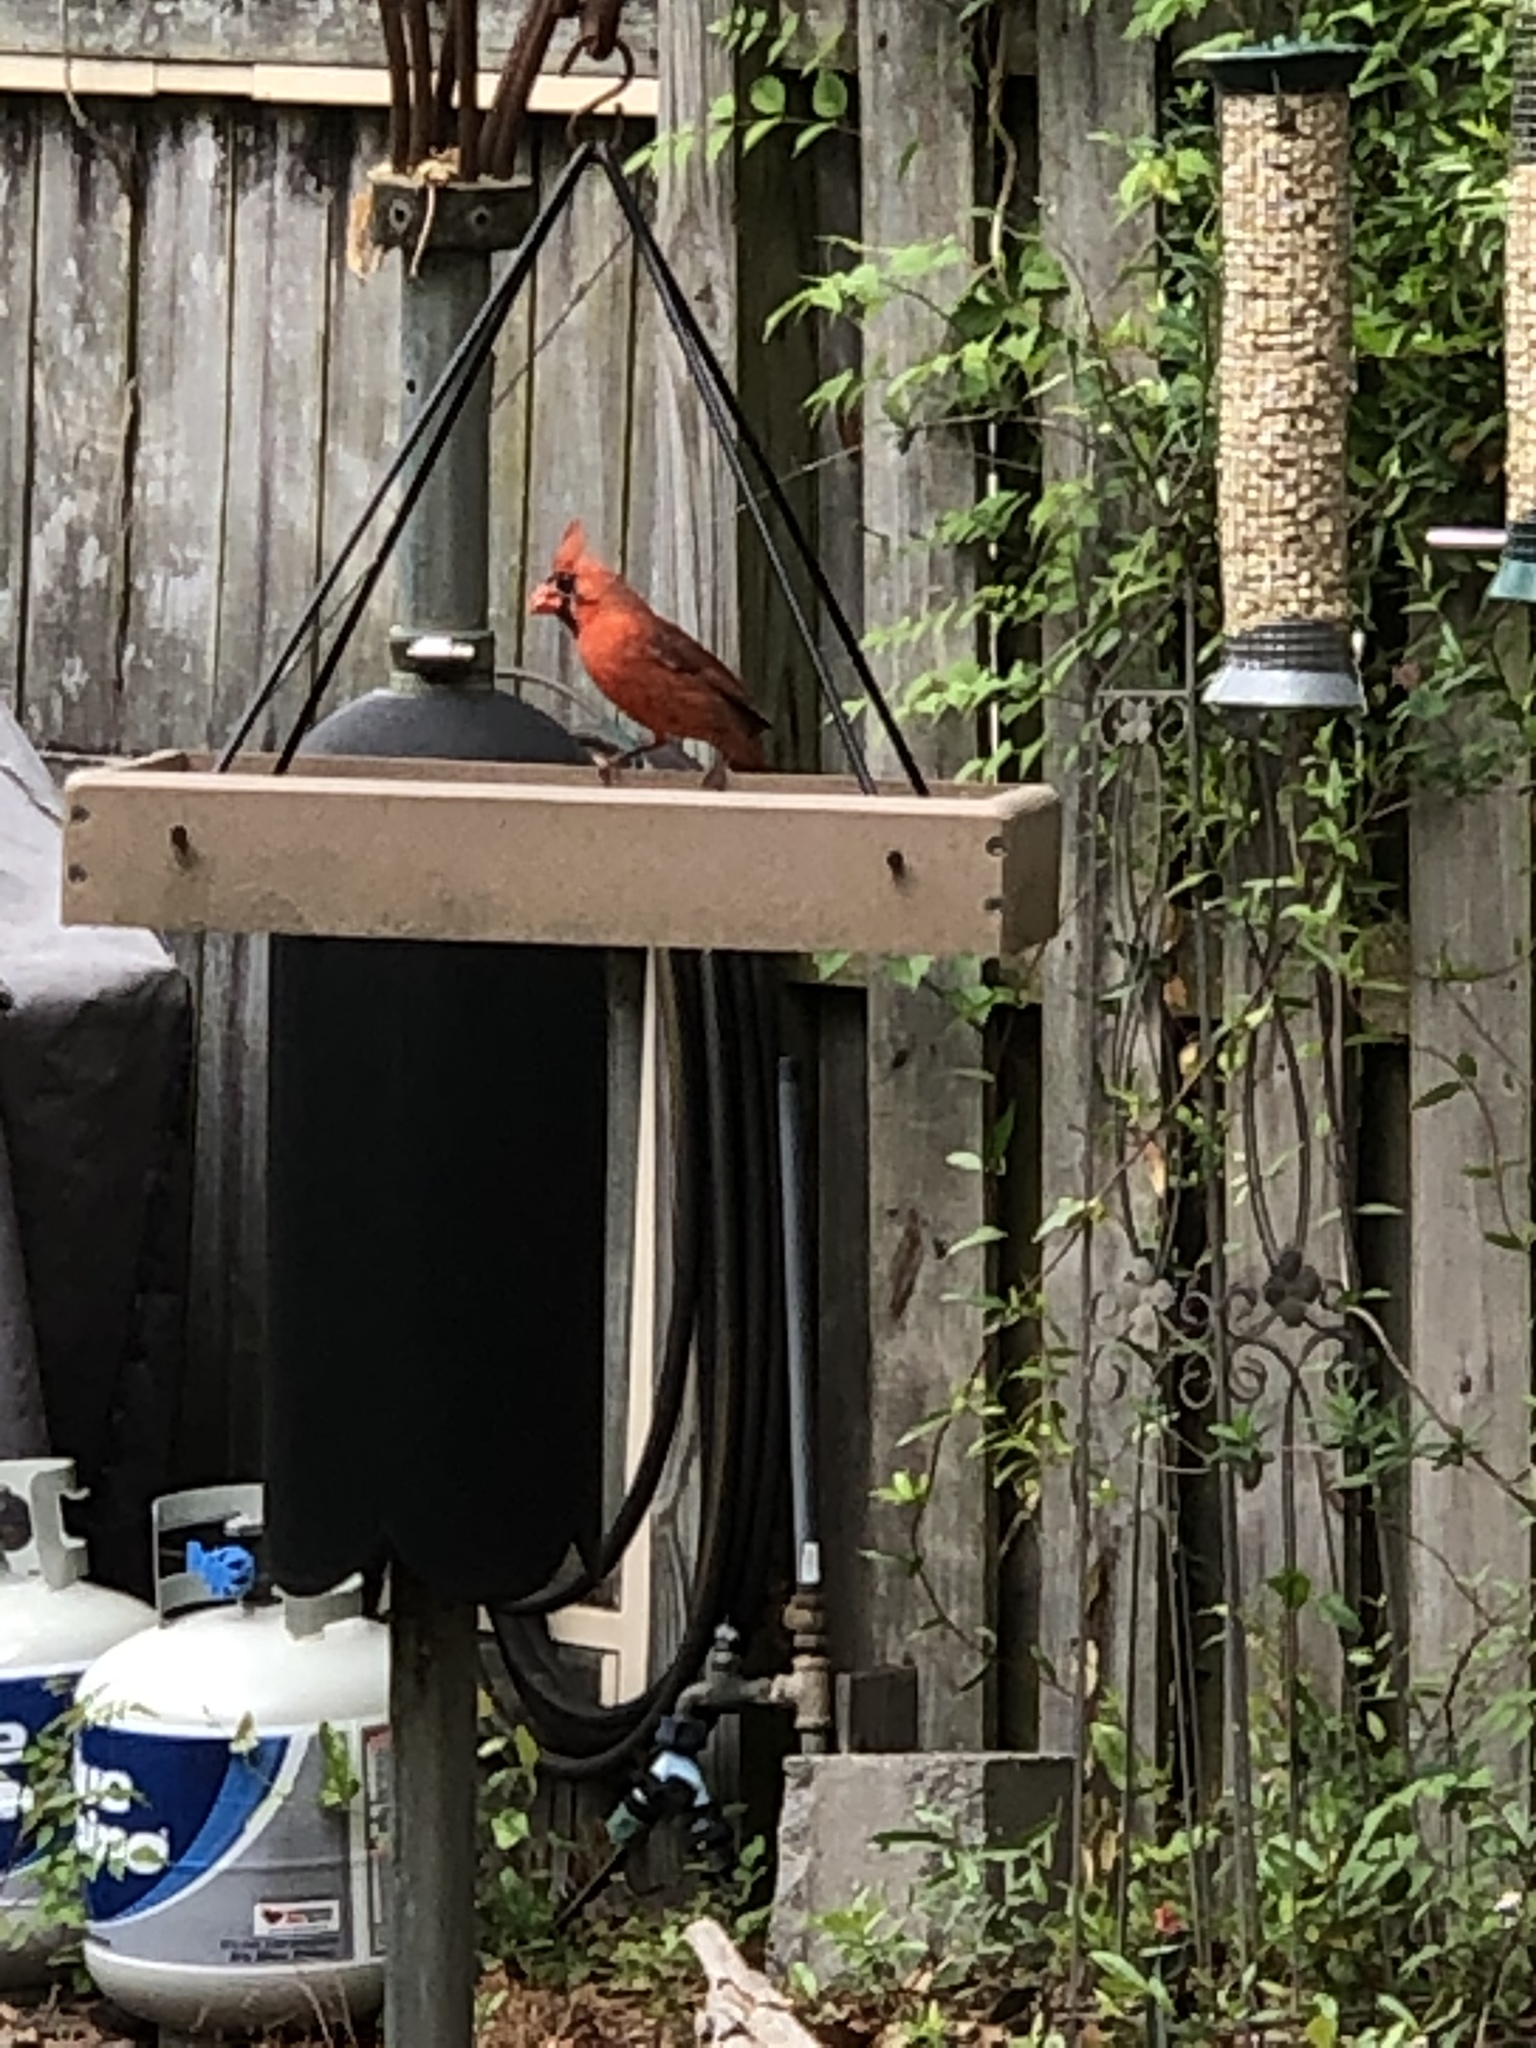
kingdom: Animalia
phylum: Chordata
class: Aves
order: Passeriformes
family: Cardinalidae
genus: Cardinalis
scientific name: Cardinalis cardinalis
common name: Northern cardinal
